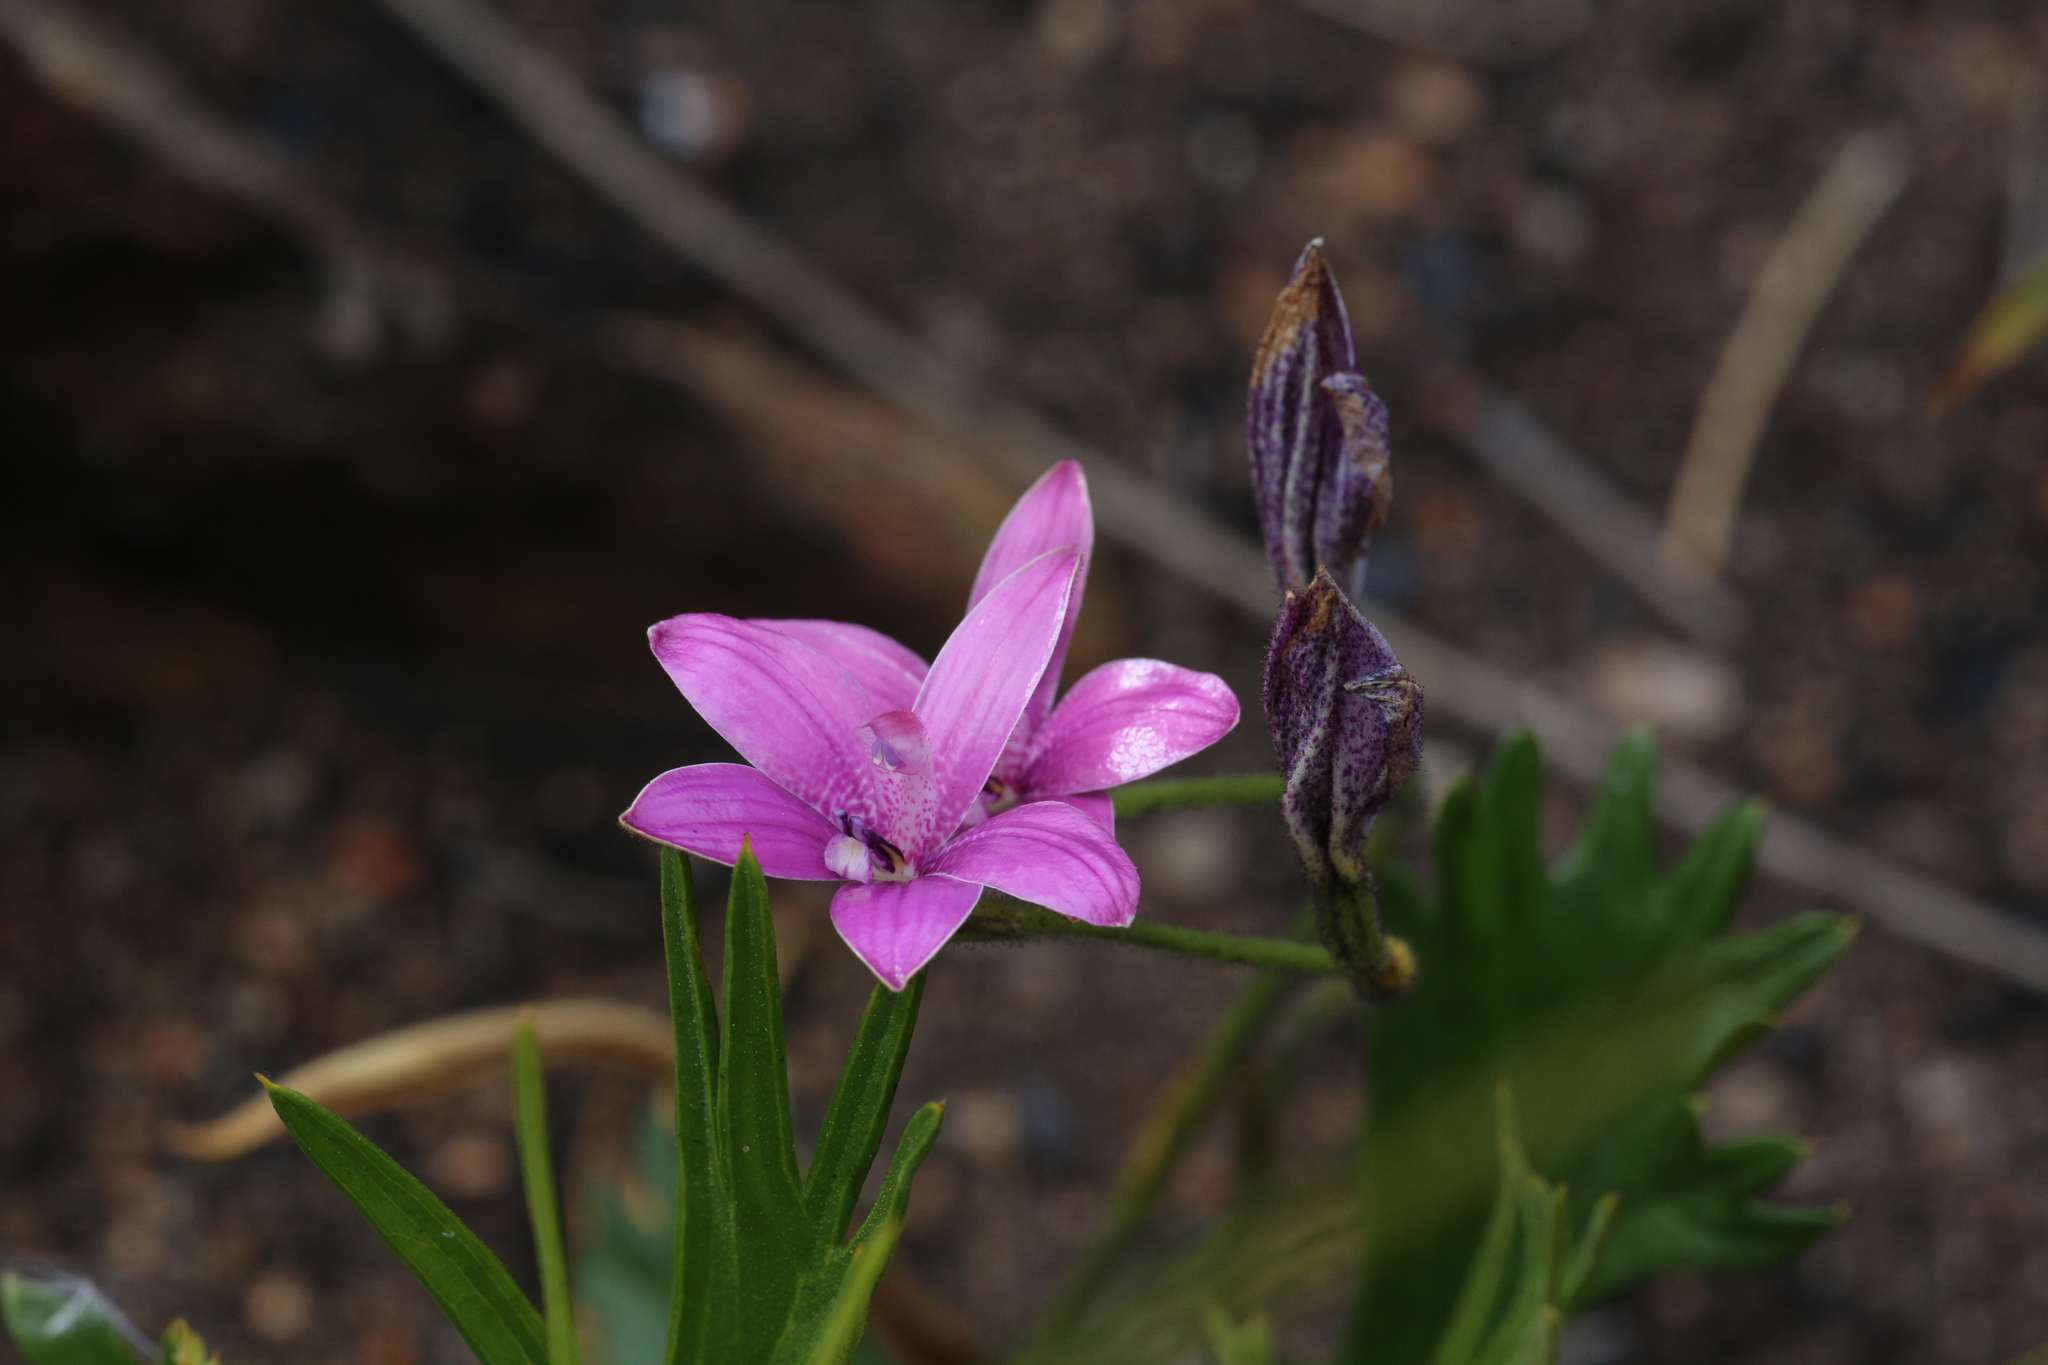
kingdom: Plantae
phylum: Tracheophyta
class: Liliopsida
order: Asparagales
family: Orchidaceae
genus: Caladenia
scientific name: Caladenia emarginata
